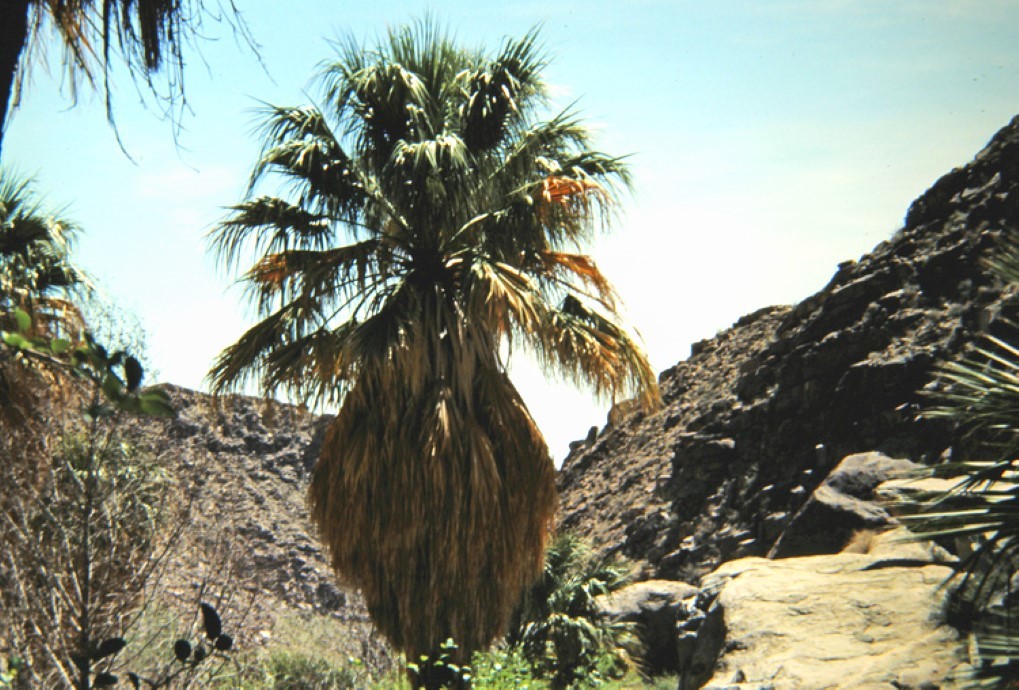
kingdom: Plantae
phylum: Tracheophyta
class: Liliopsida
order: Arecales
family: Arecaceae
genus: Washingtonia
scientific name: Washingtonia filifera
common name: California fan palm
